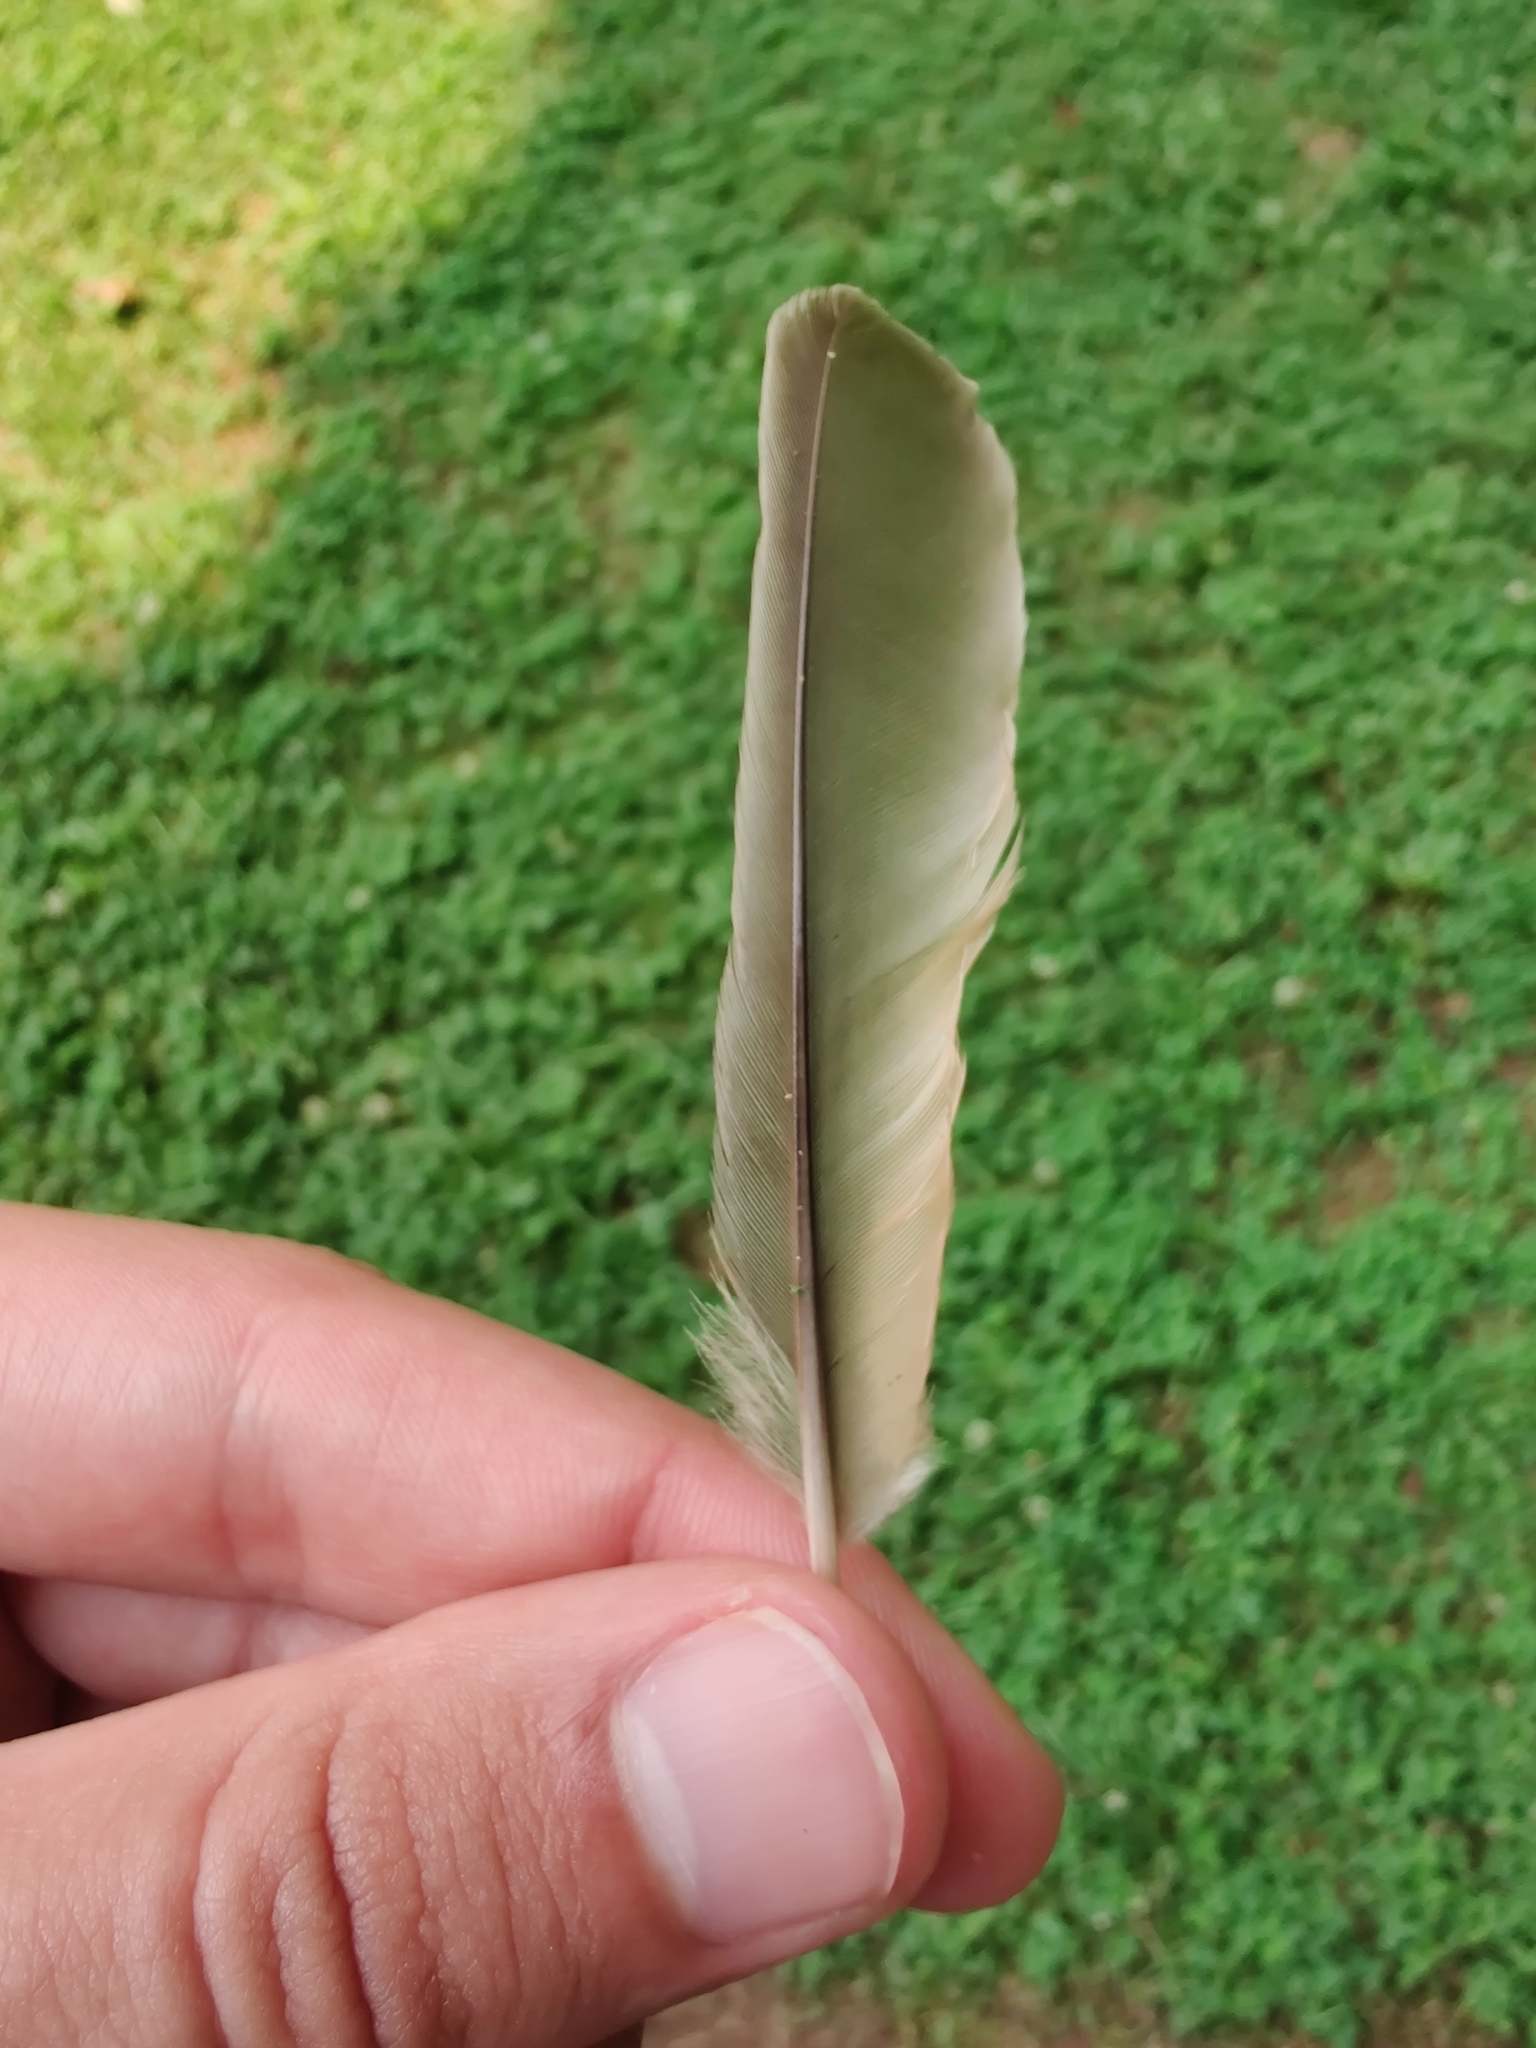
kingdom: Animalia
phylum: Chordata
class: Aves
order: Passeriformes
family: Turdidae
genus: Turdus
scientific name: Turdus migratorius
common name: American robin
